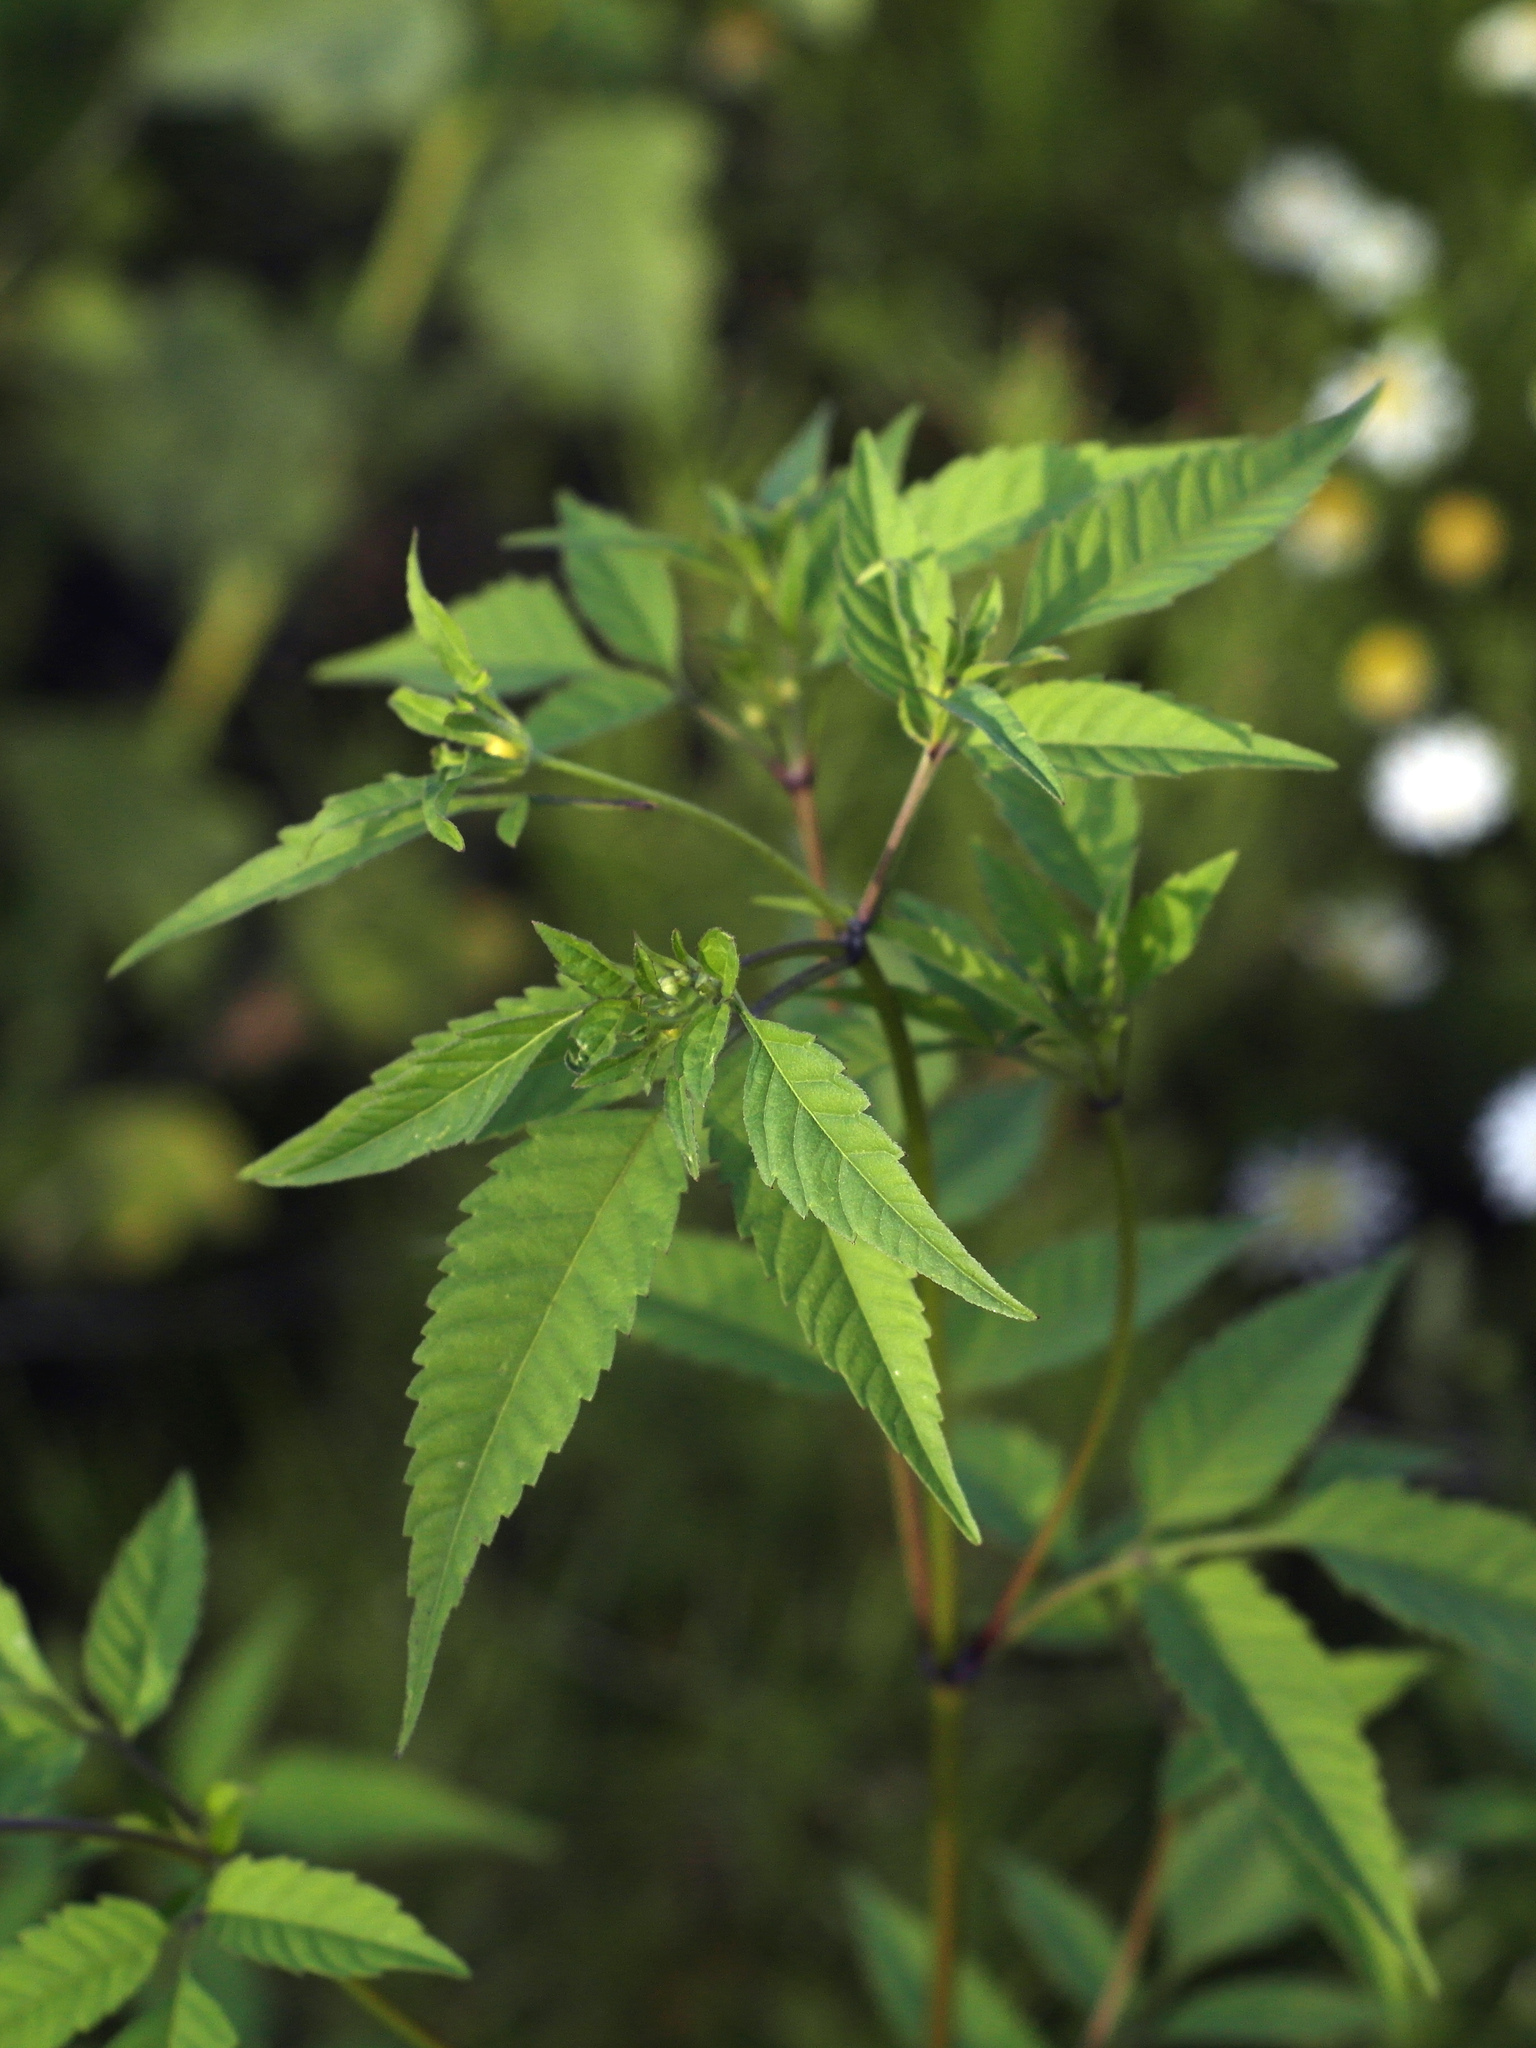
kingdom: Plantae
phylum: Tracheophyta
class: Magnoliopsida
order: Asterales
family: Asteraceae
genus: Bidens
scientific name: Bidens frondosa
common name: Beggarticks
